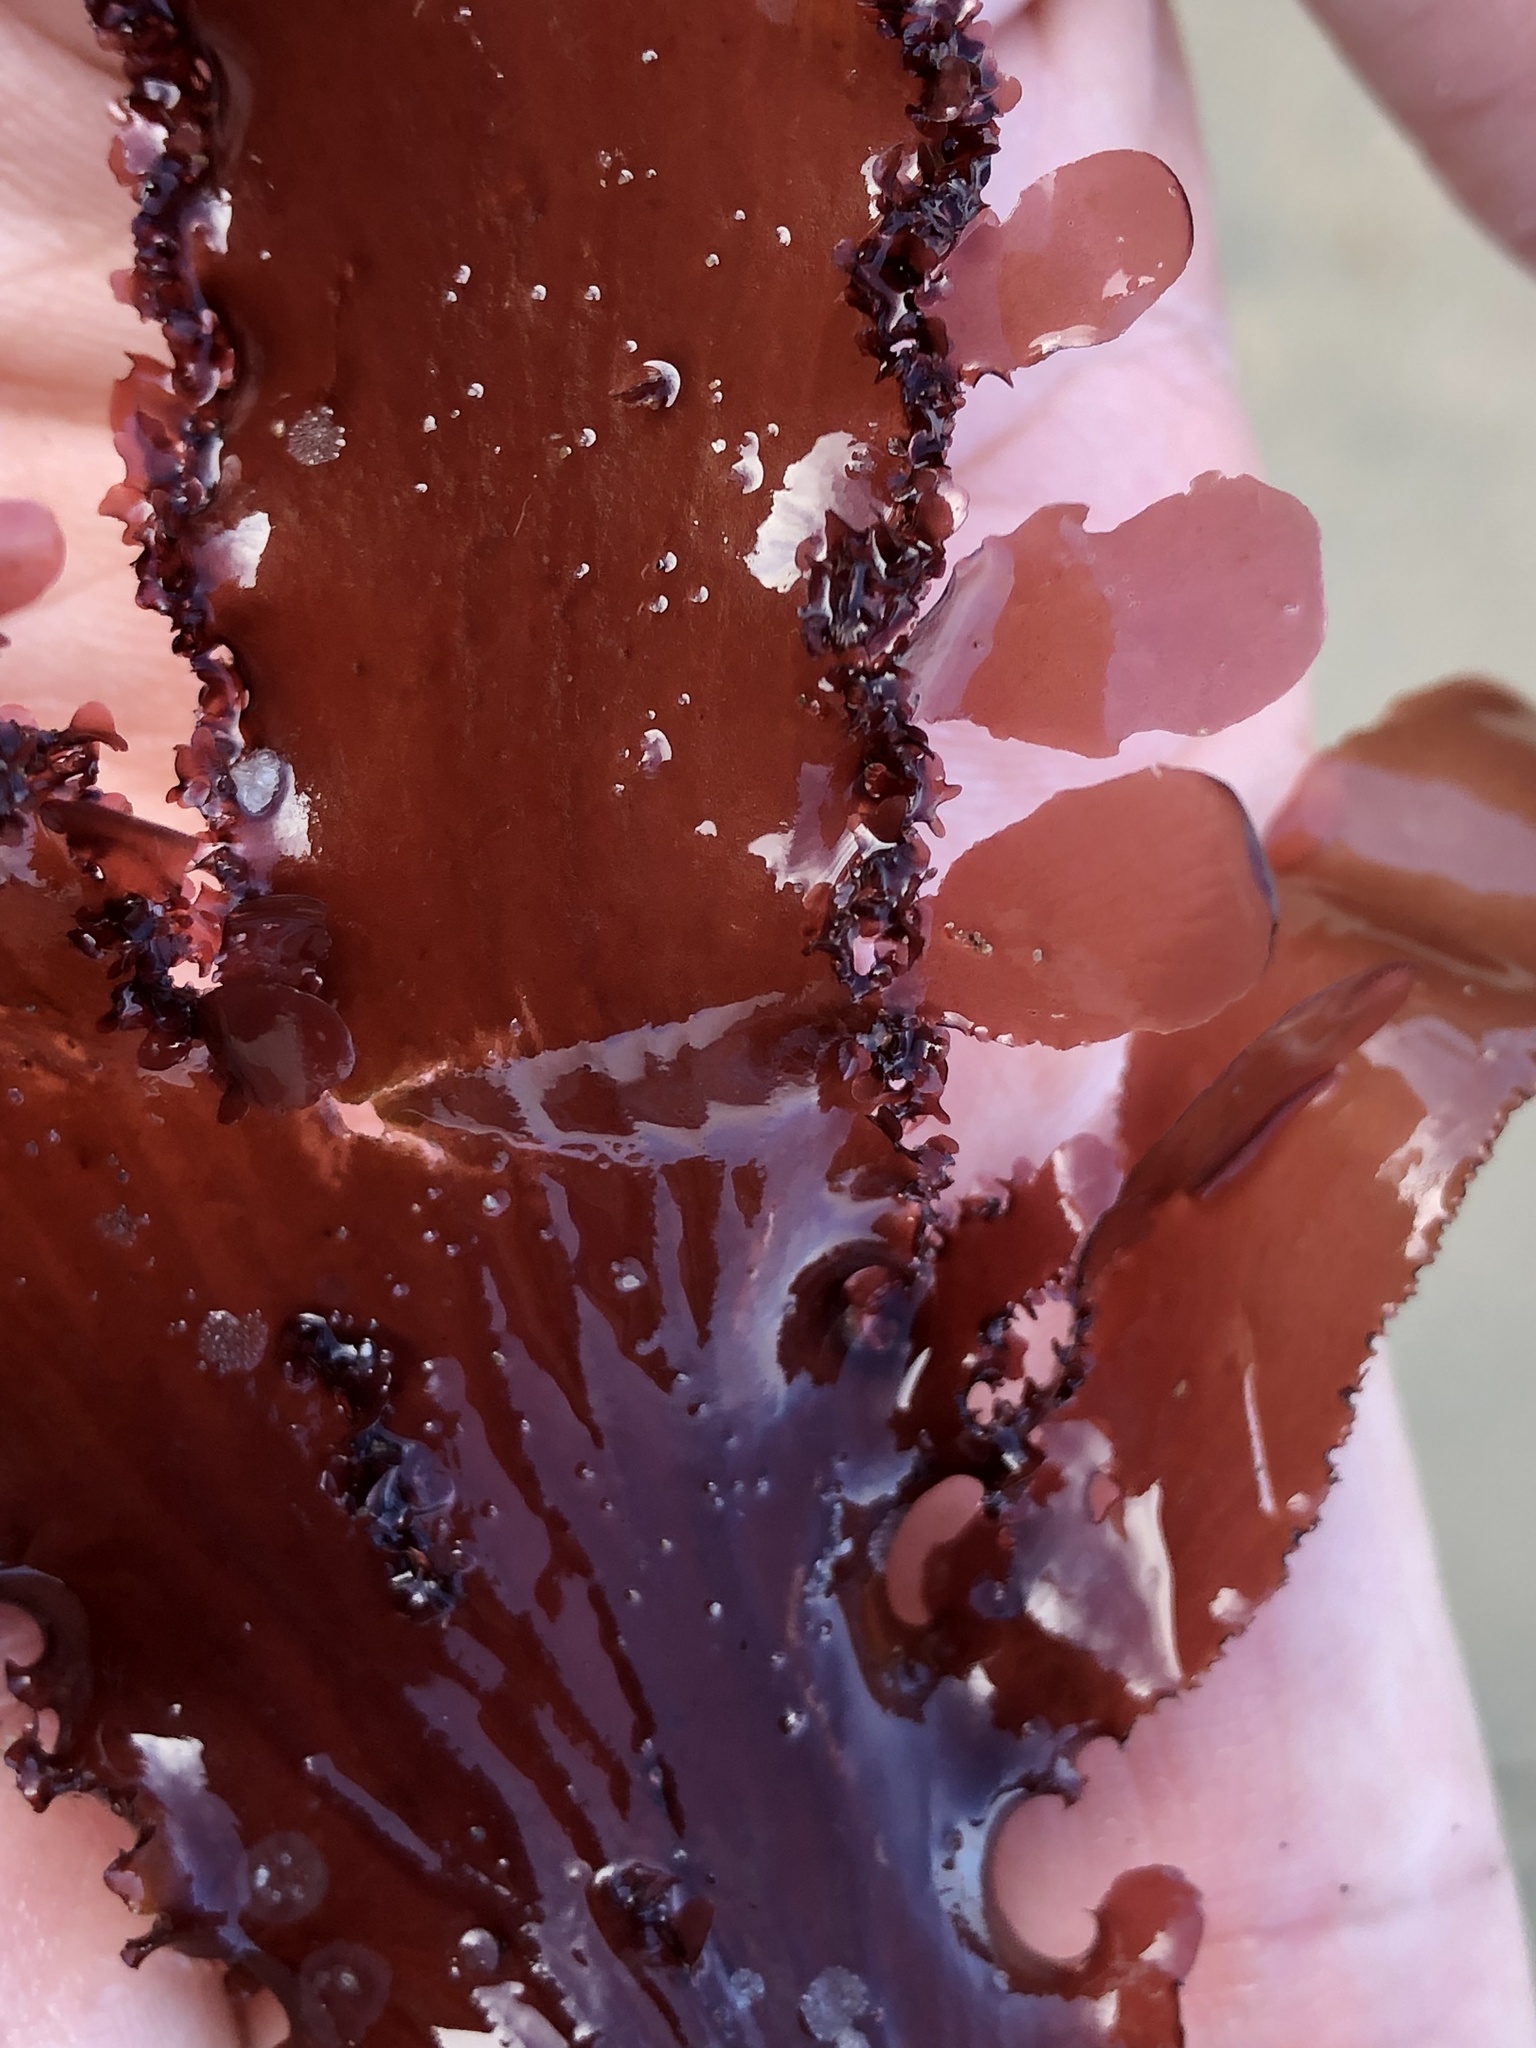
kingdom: Plantae
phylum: Rhodophyta
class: Florideophyceae
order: Ceramiales
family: Delesseriaceae
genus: Cryptopleura
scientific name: Cryptopleura ruprechtiana
